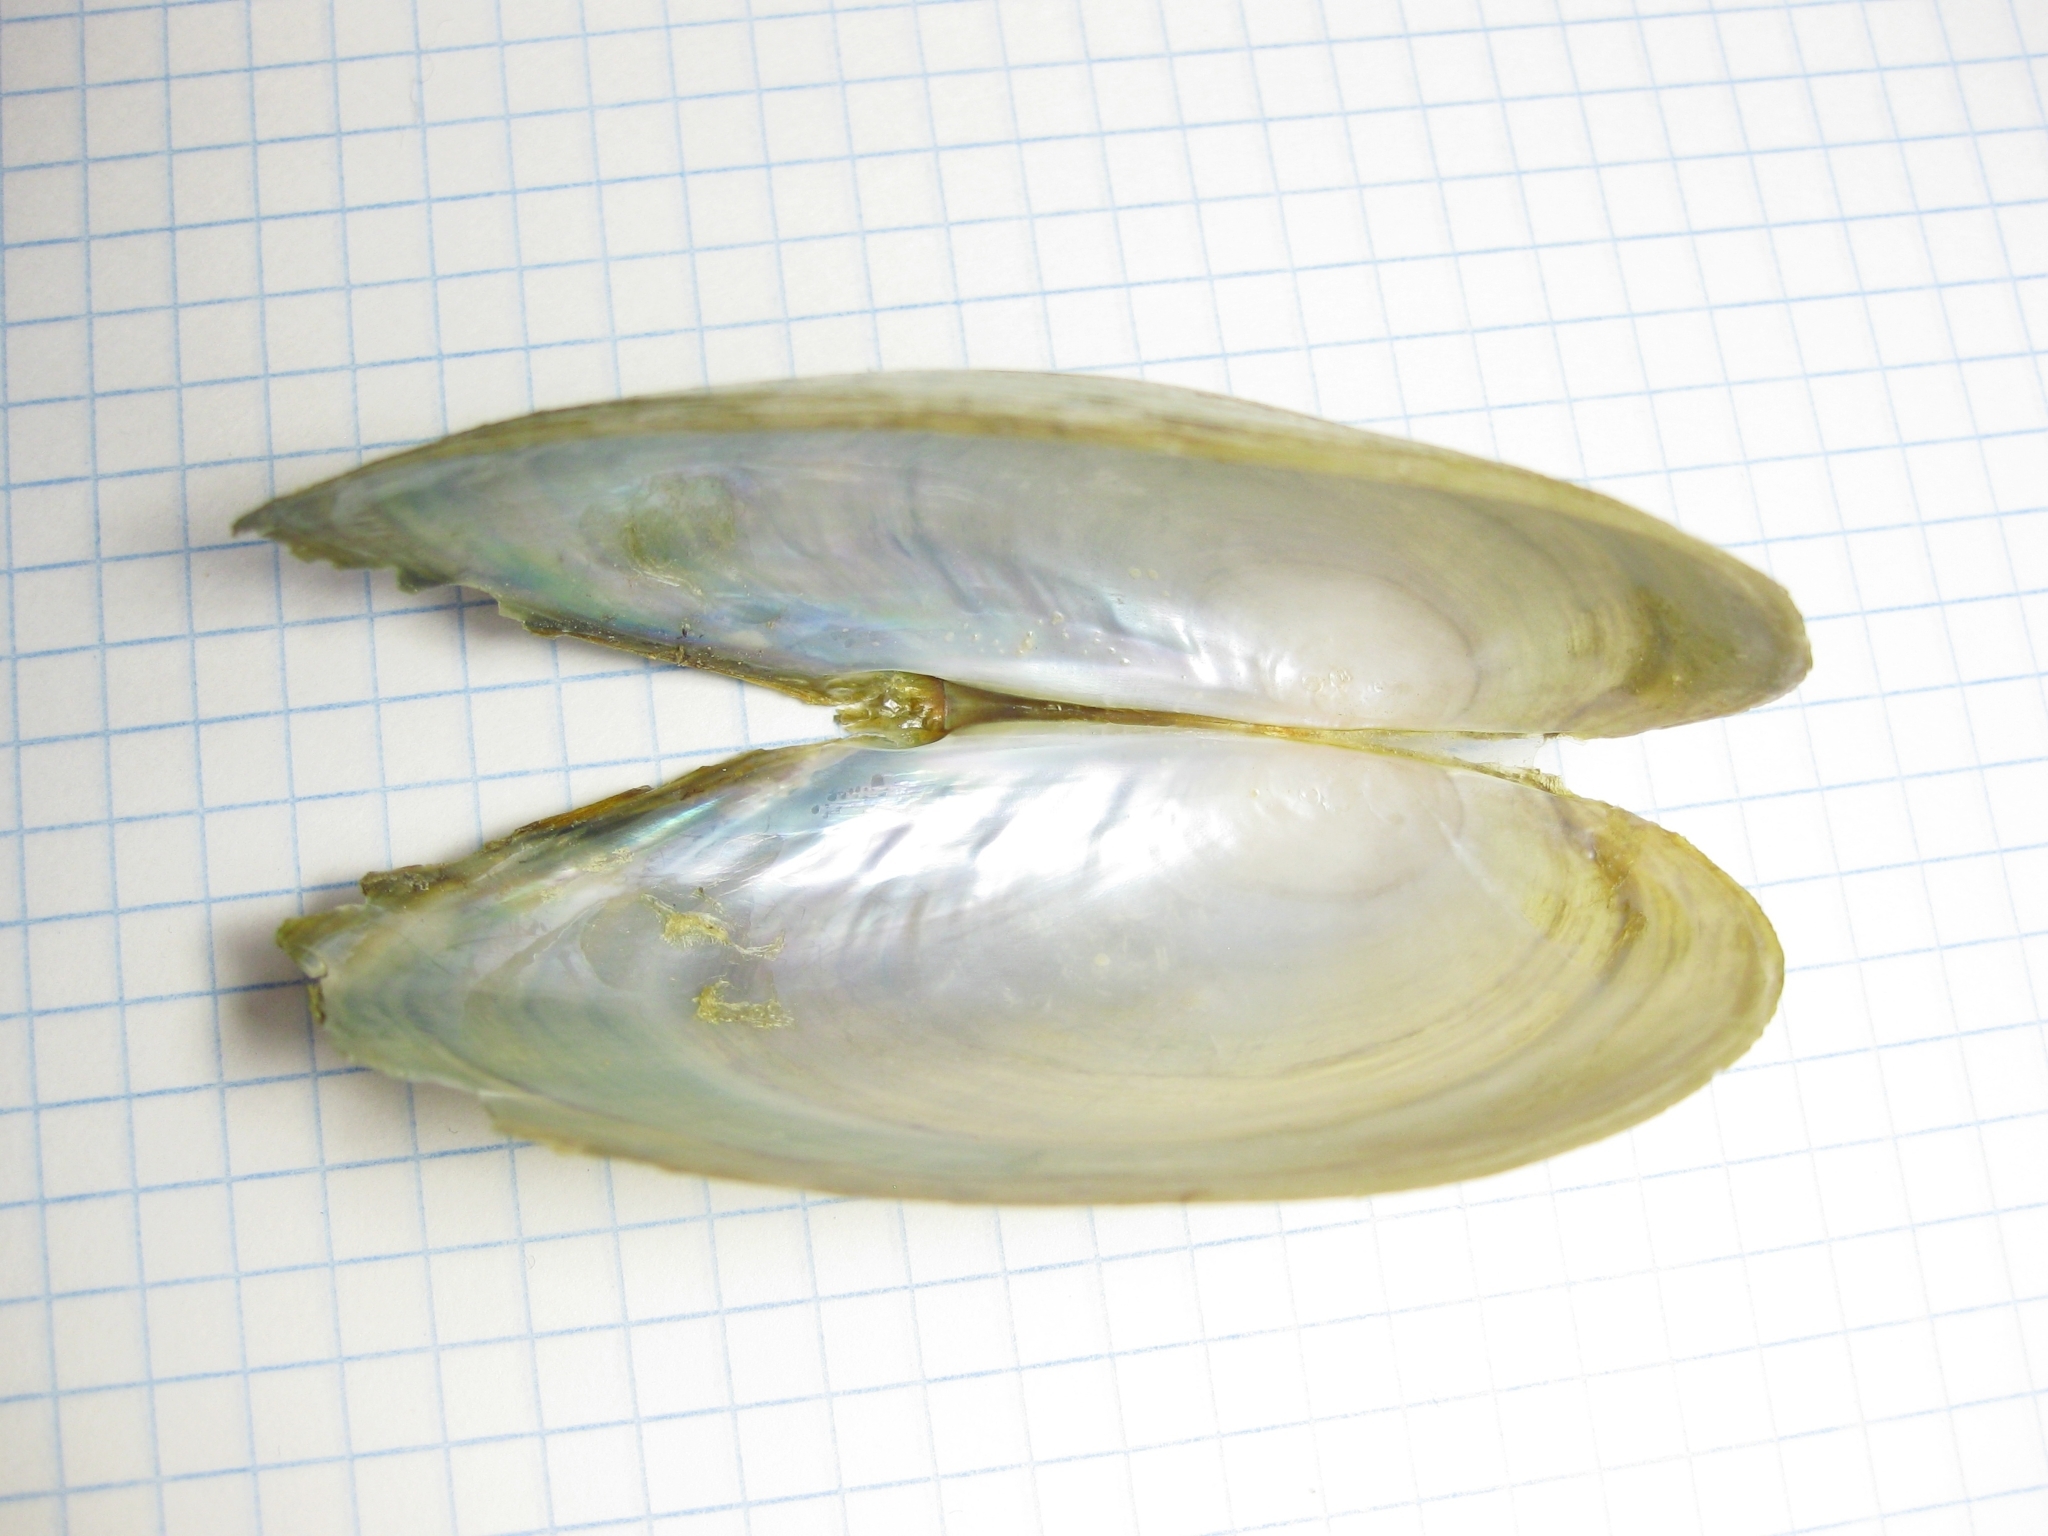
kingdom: Animalia
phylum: Mollusca
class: Bivalvia
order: Unionida
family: Unionidae
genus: Anodonta
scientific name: Anodonta anatina
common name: Duck mussel
